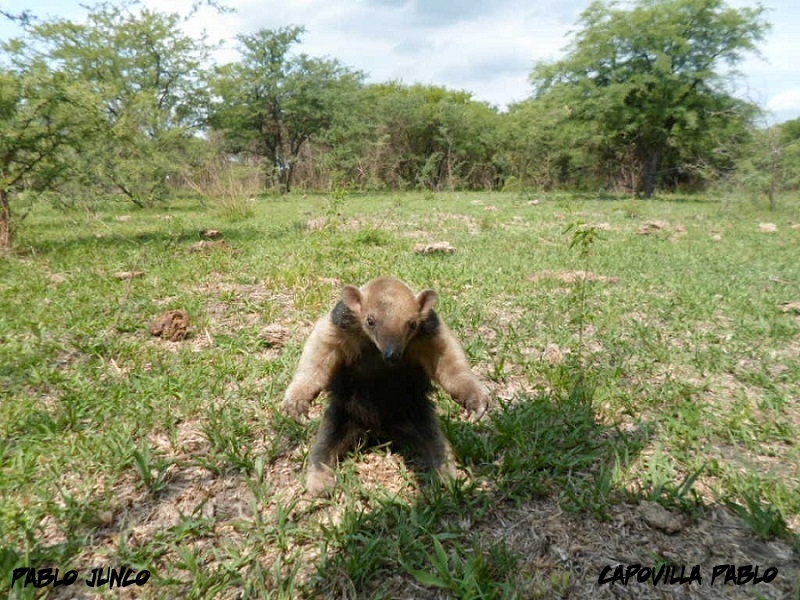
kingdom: Animalia
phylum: Chordata
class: Mammalia
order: Pilosa
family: Myrmecophagidae
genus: Tamandua
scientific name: Tamandua tetradactyla
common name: Southern tamandua
